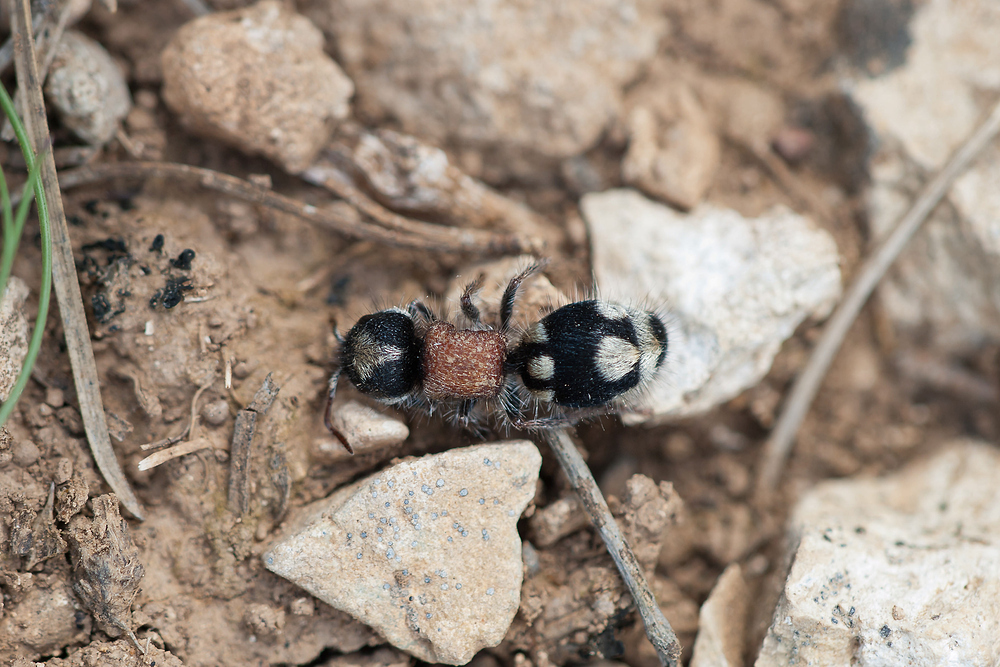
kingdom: Animalia
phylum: Arthropoda
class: Insecta
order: Hymenoptera
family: Mutillidae
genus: Ronisia
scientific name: Ronisia barbarula
